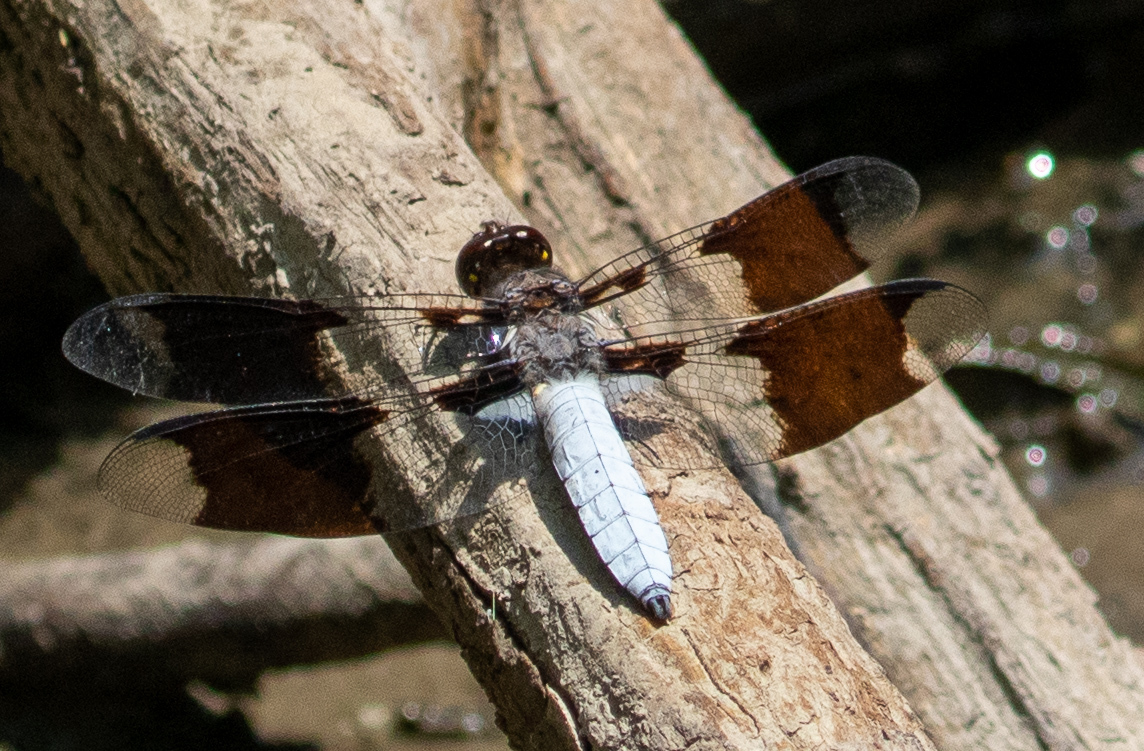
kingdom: Animalia
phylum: Arthropoda
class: Insecta
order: Odonata
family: Libellulidae
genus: Plathemis
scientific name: Plathemis lydia
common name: Common whitetail
